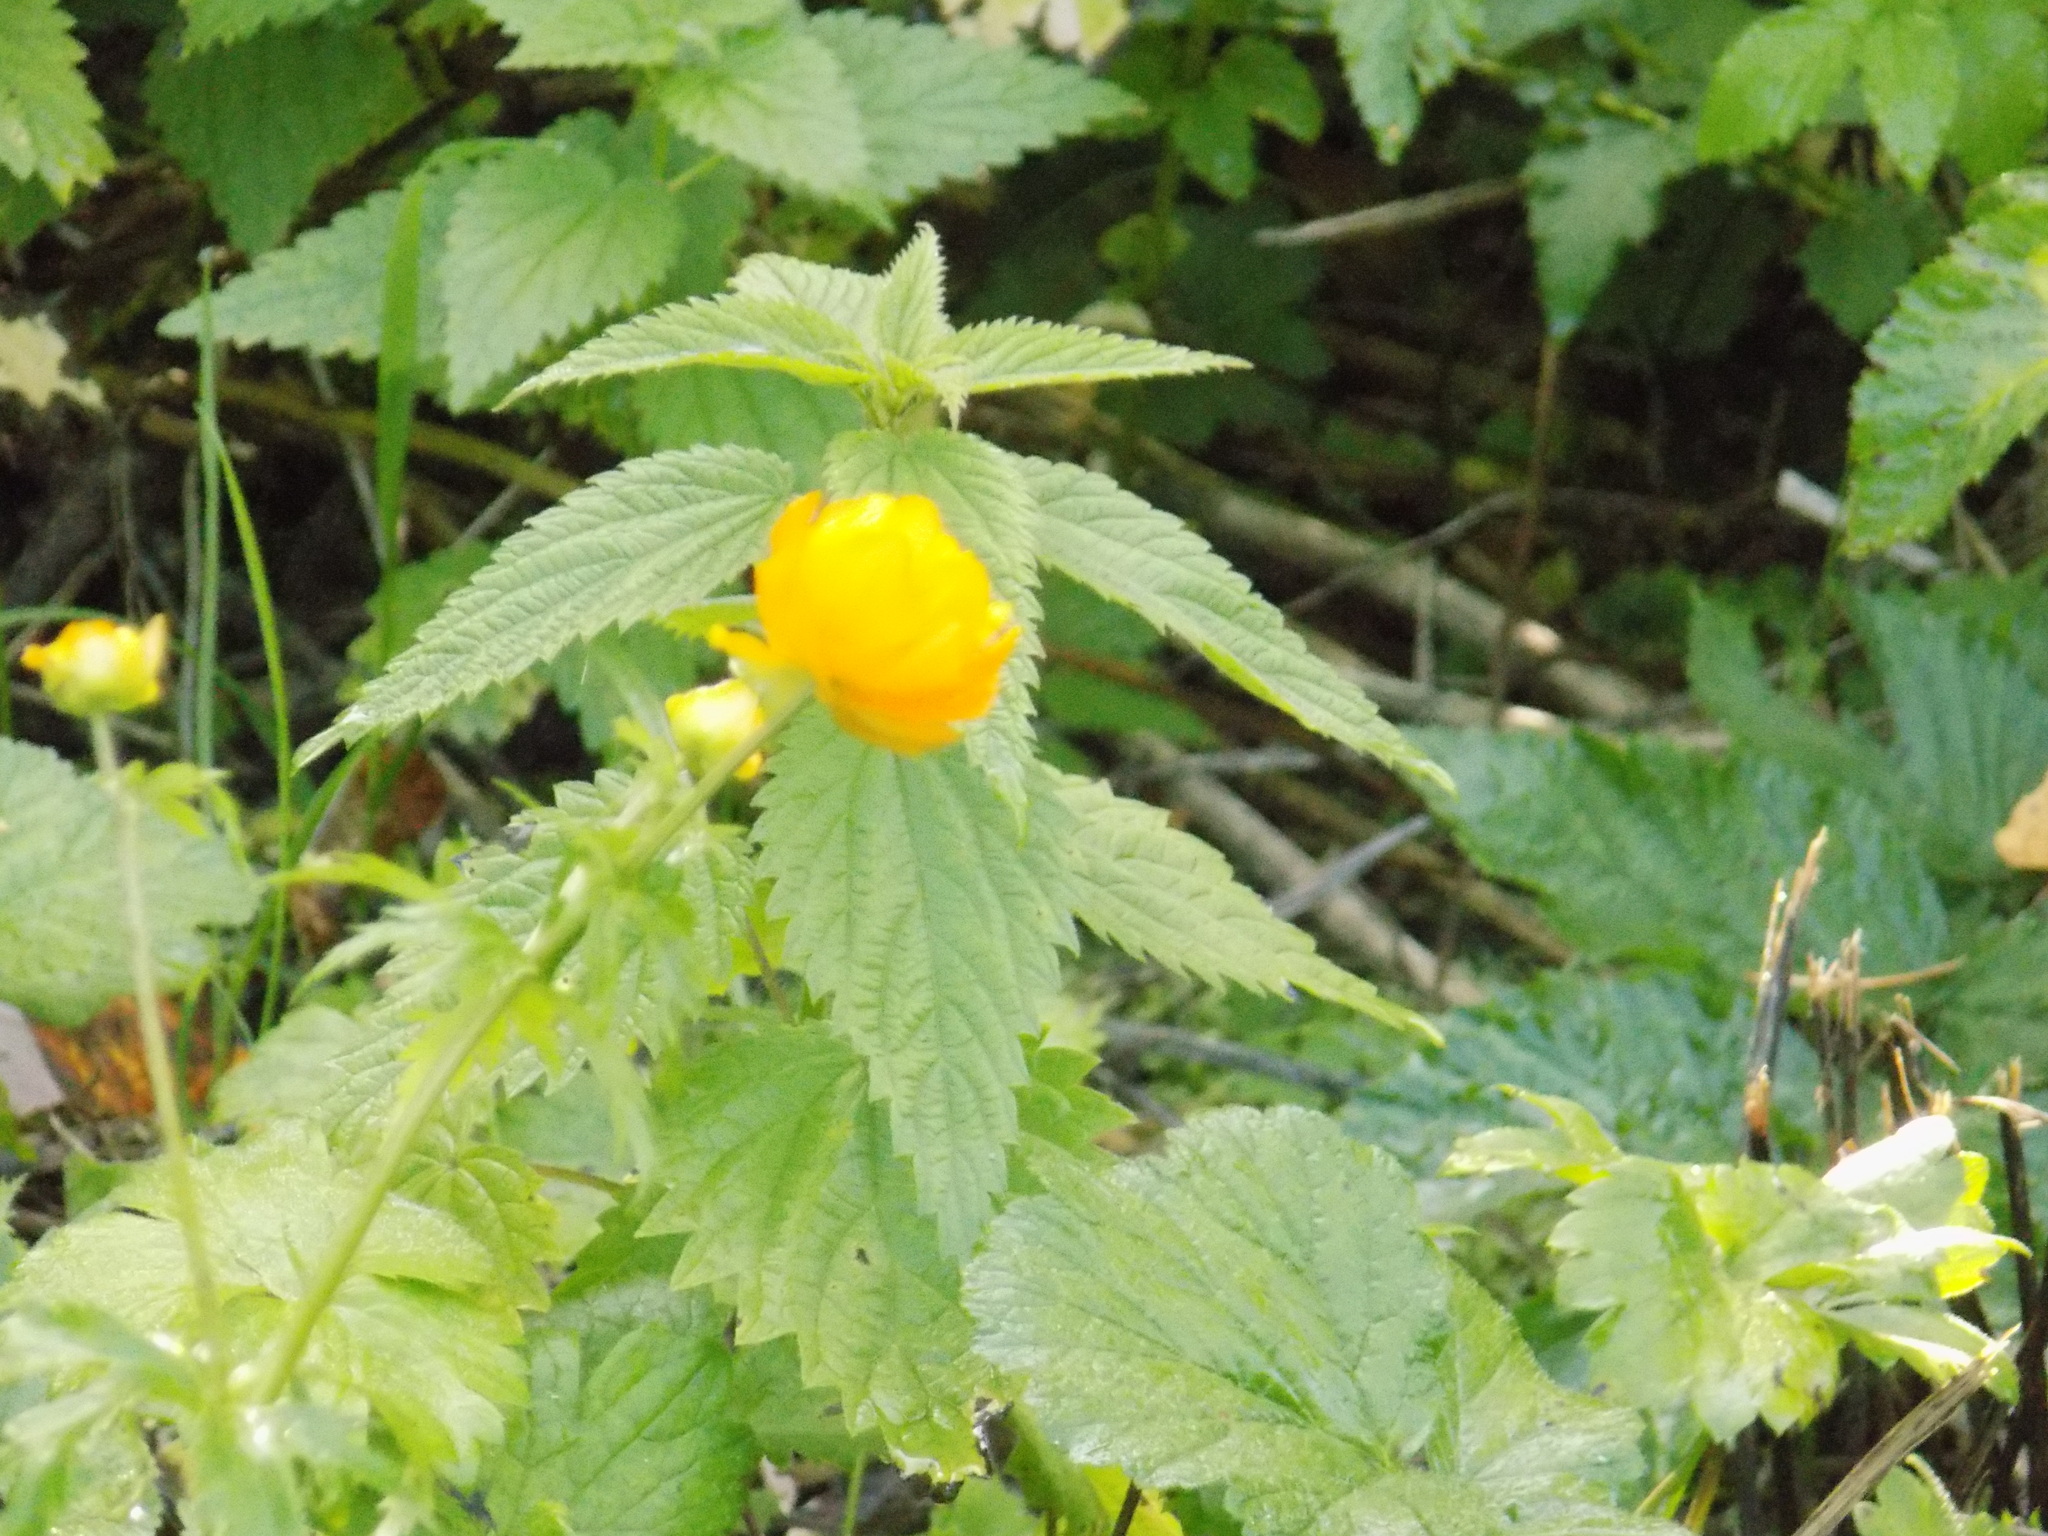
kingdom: Plantae
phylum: Tracheophyta
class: Magnoliopsida
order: Ranunculales
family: Ranunculaceae
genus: Trollius
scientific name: Trollius asiaticus
